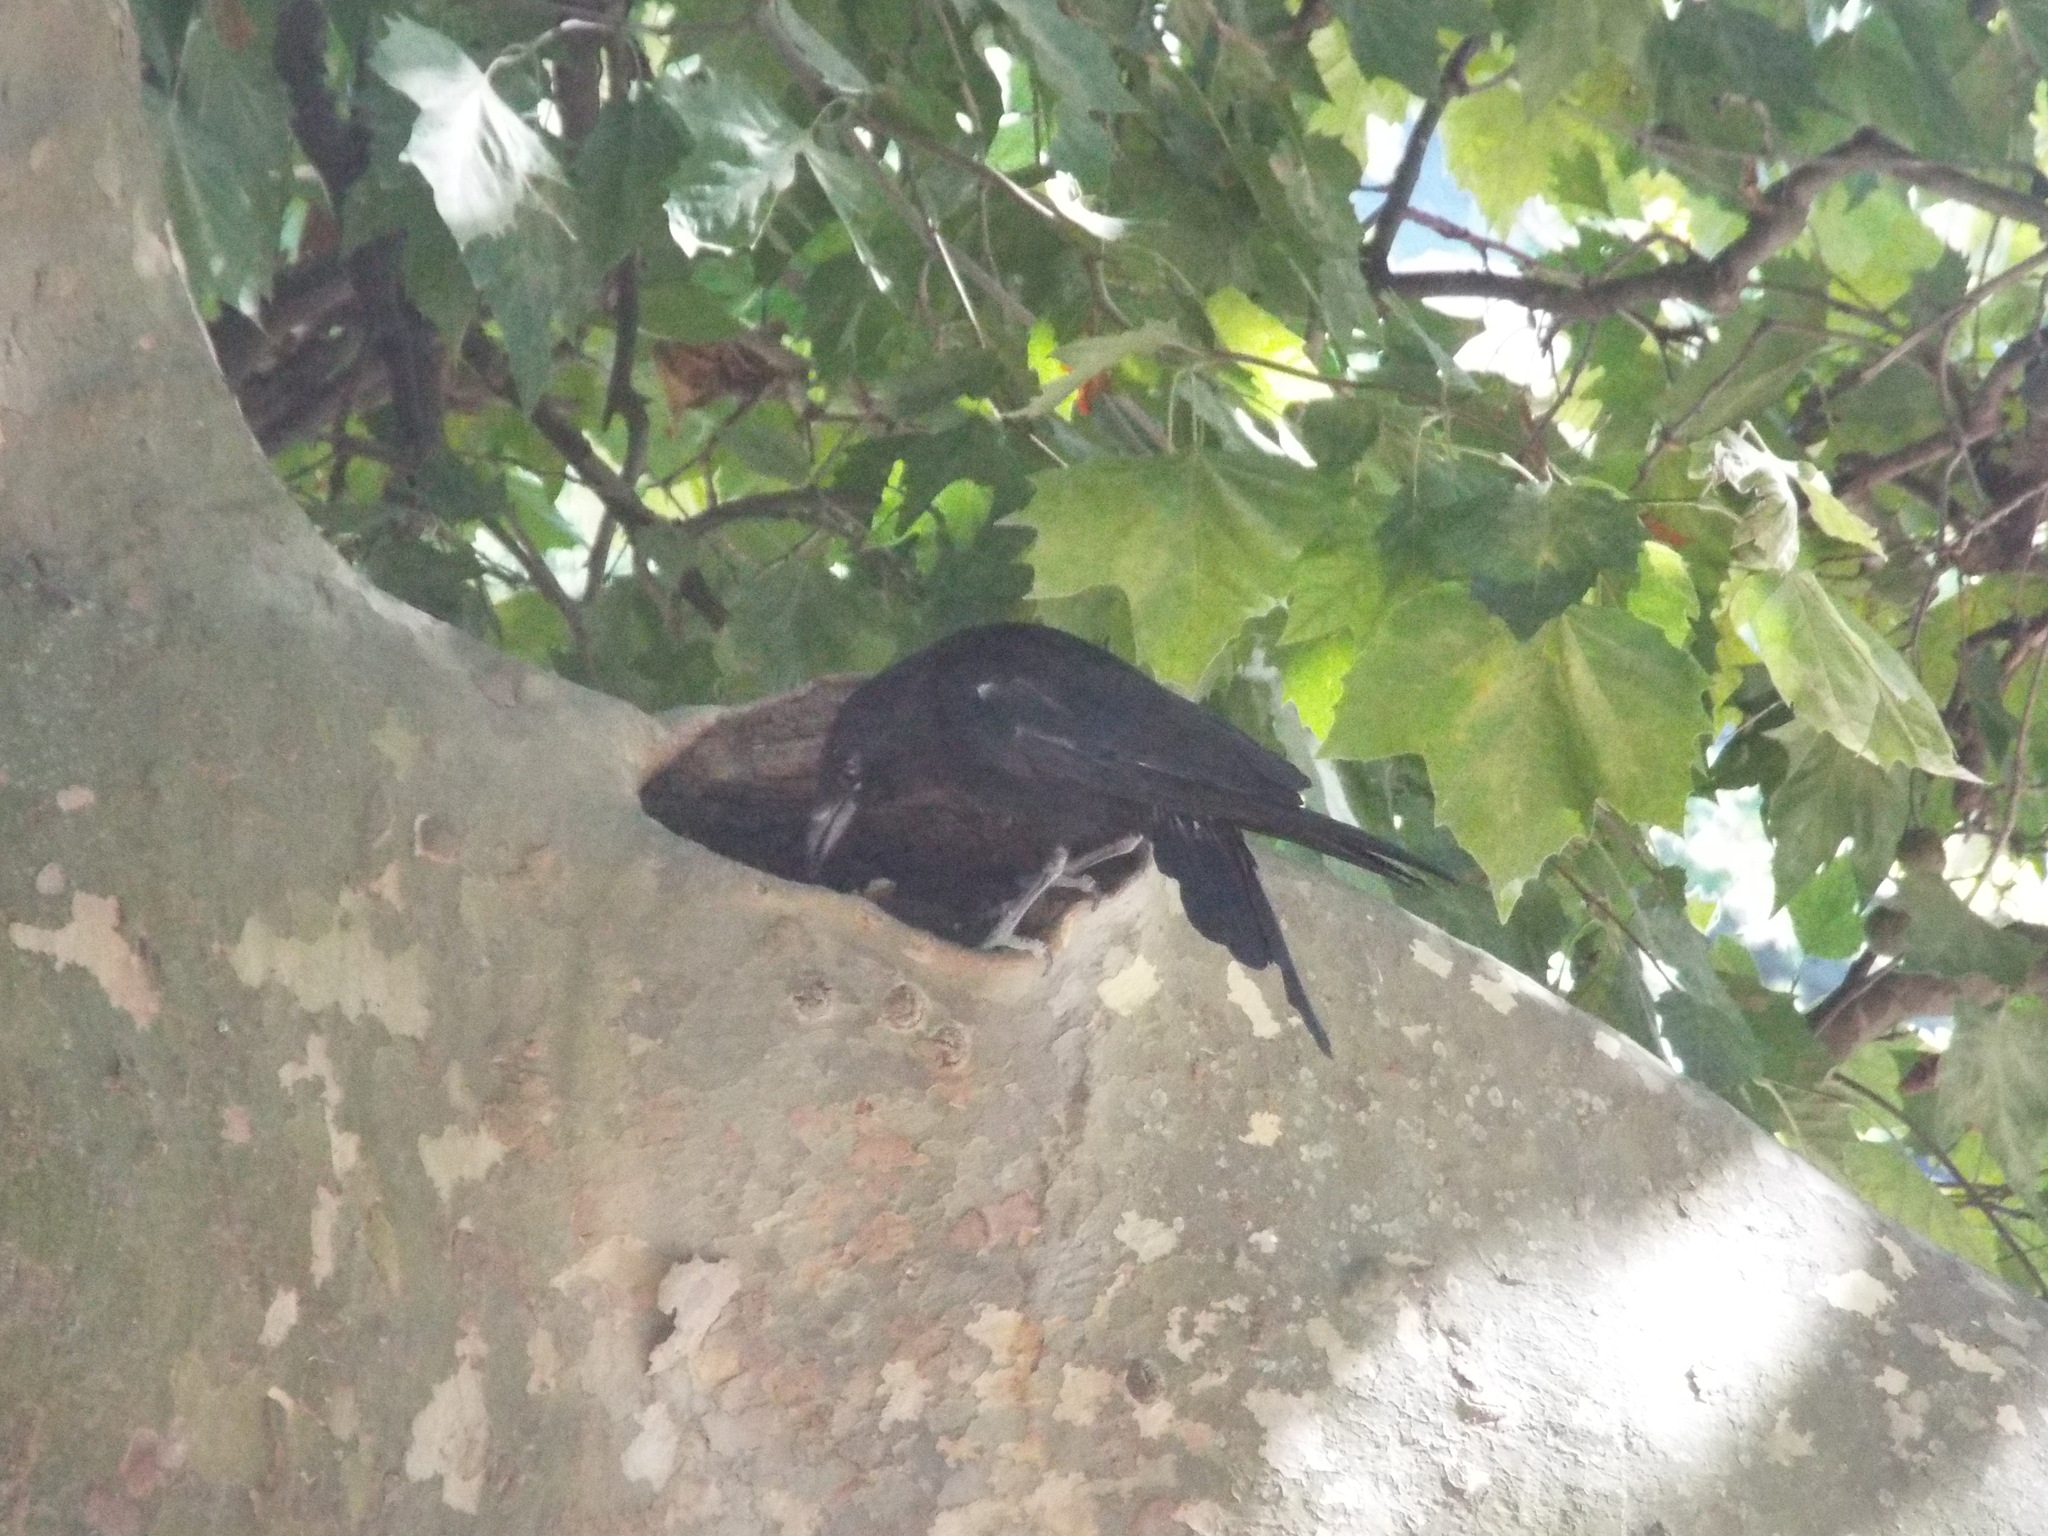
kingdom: Animalia
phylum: Chordata
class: Aves
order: Passeriformes
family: Corvidae
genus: Corvus
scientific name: Corvus corone
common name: Carrion crow
